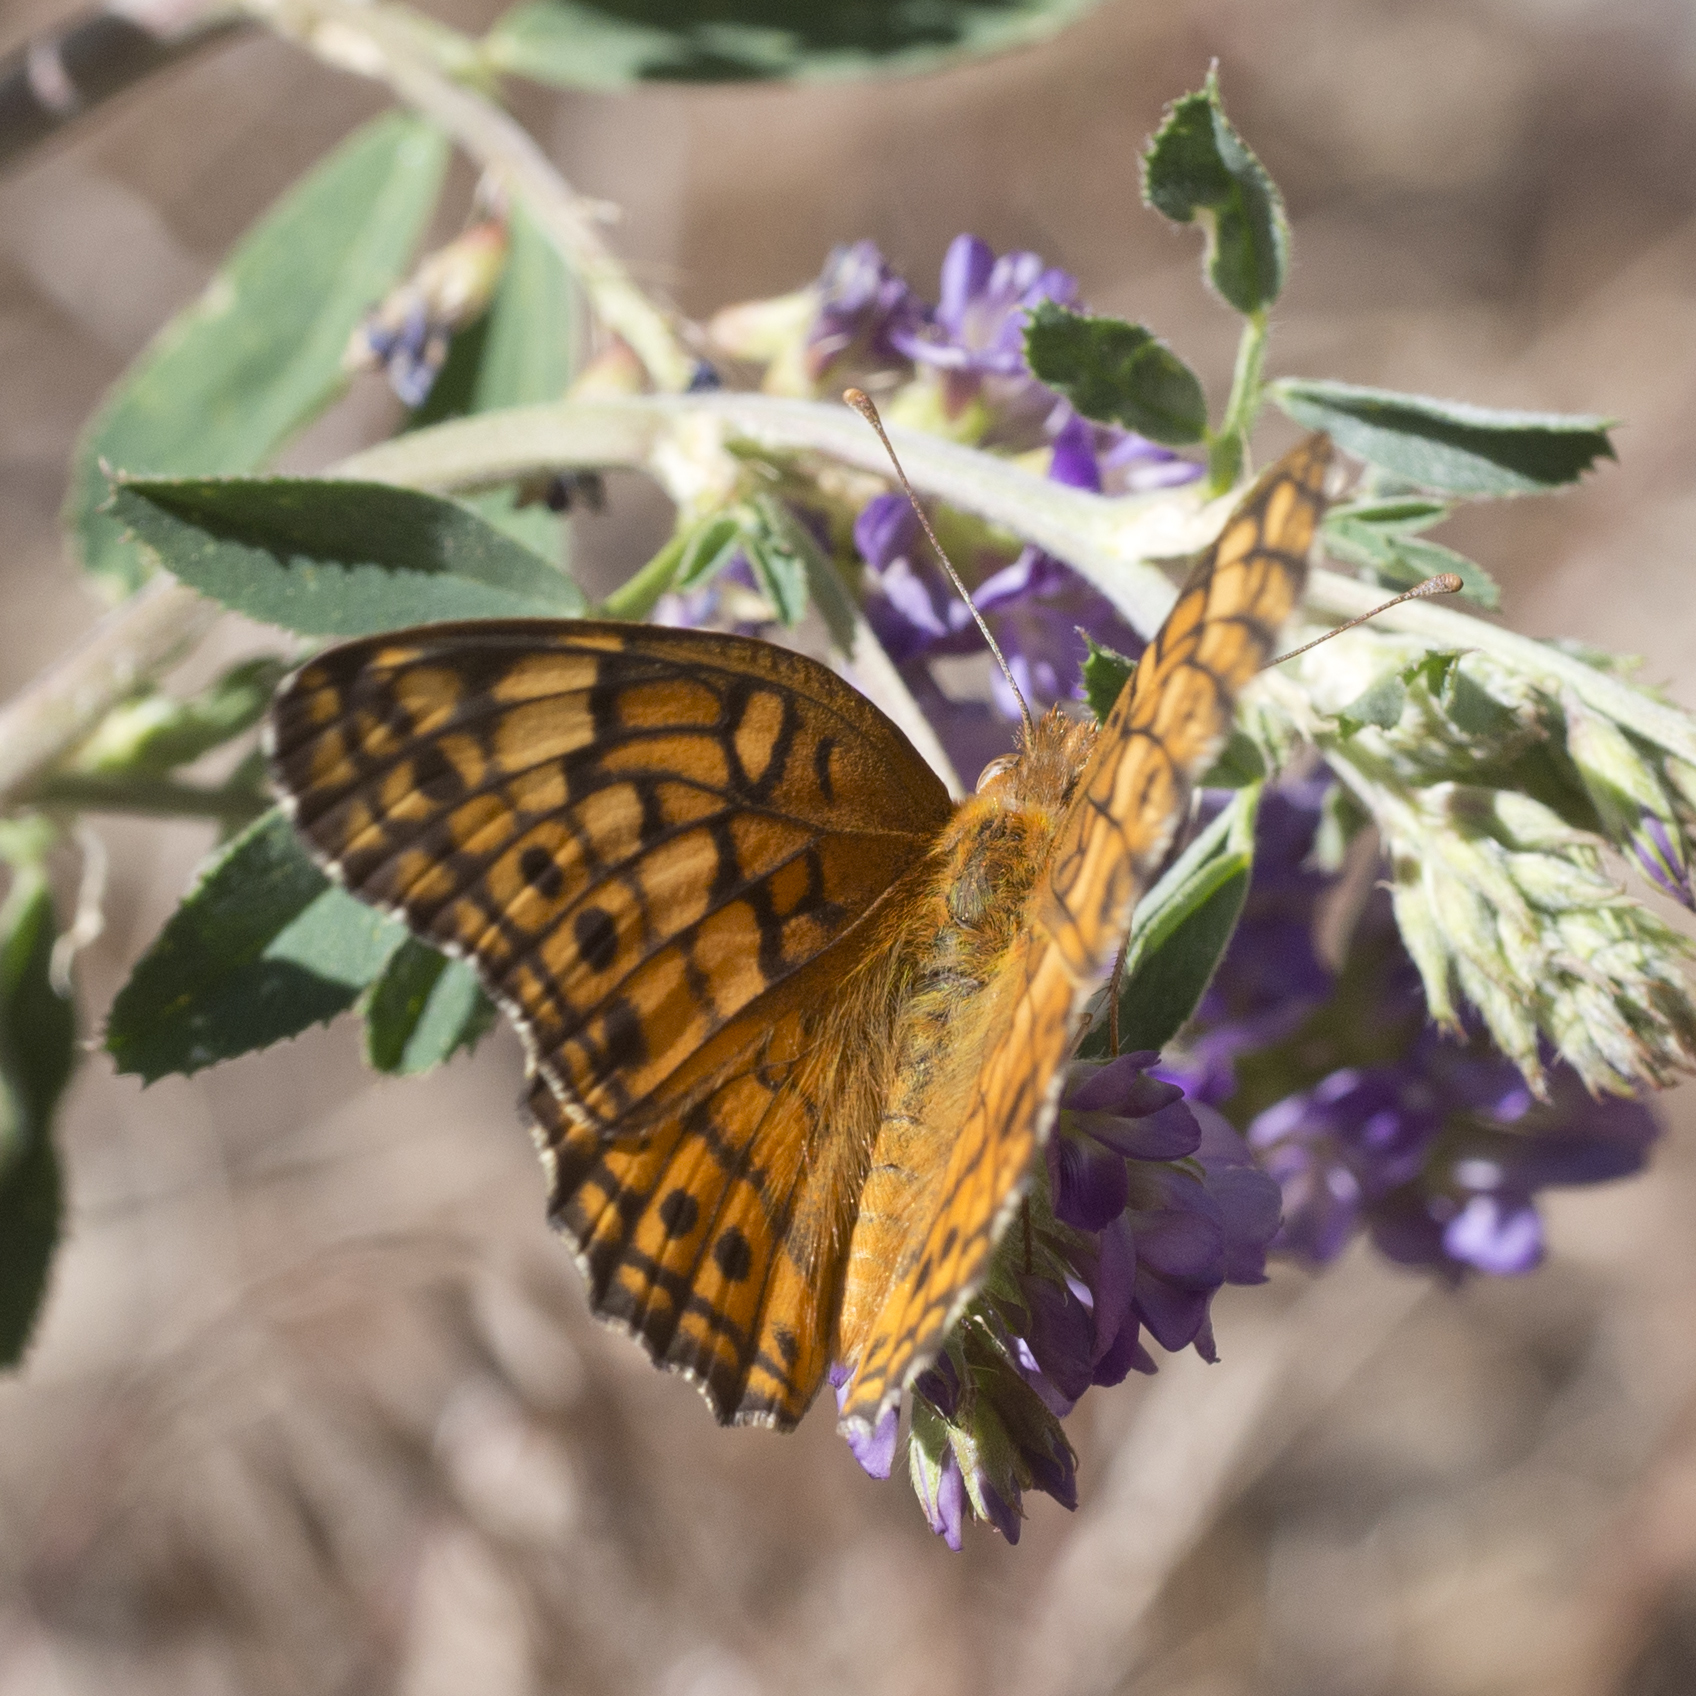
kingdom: Animalia
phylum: Arthropoda
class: Insecta
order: Lepidoptera
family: Nymphalidae
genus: Euptoieta
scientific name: Euptoieta claudia
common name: Variegated fritillary
